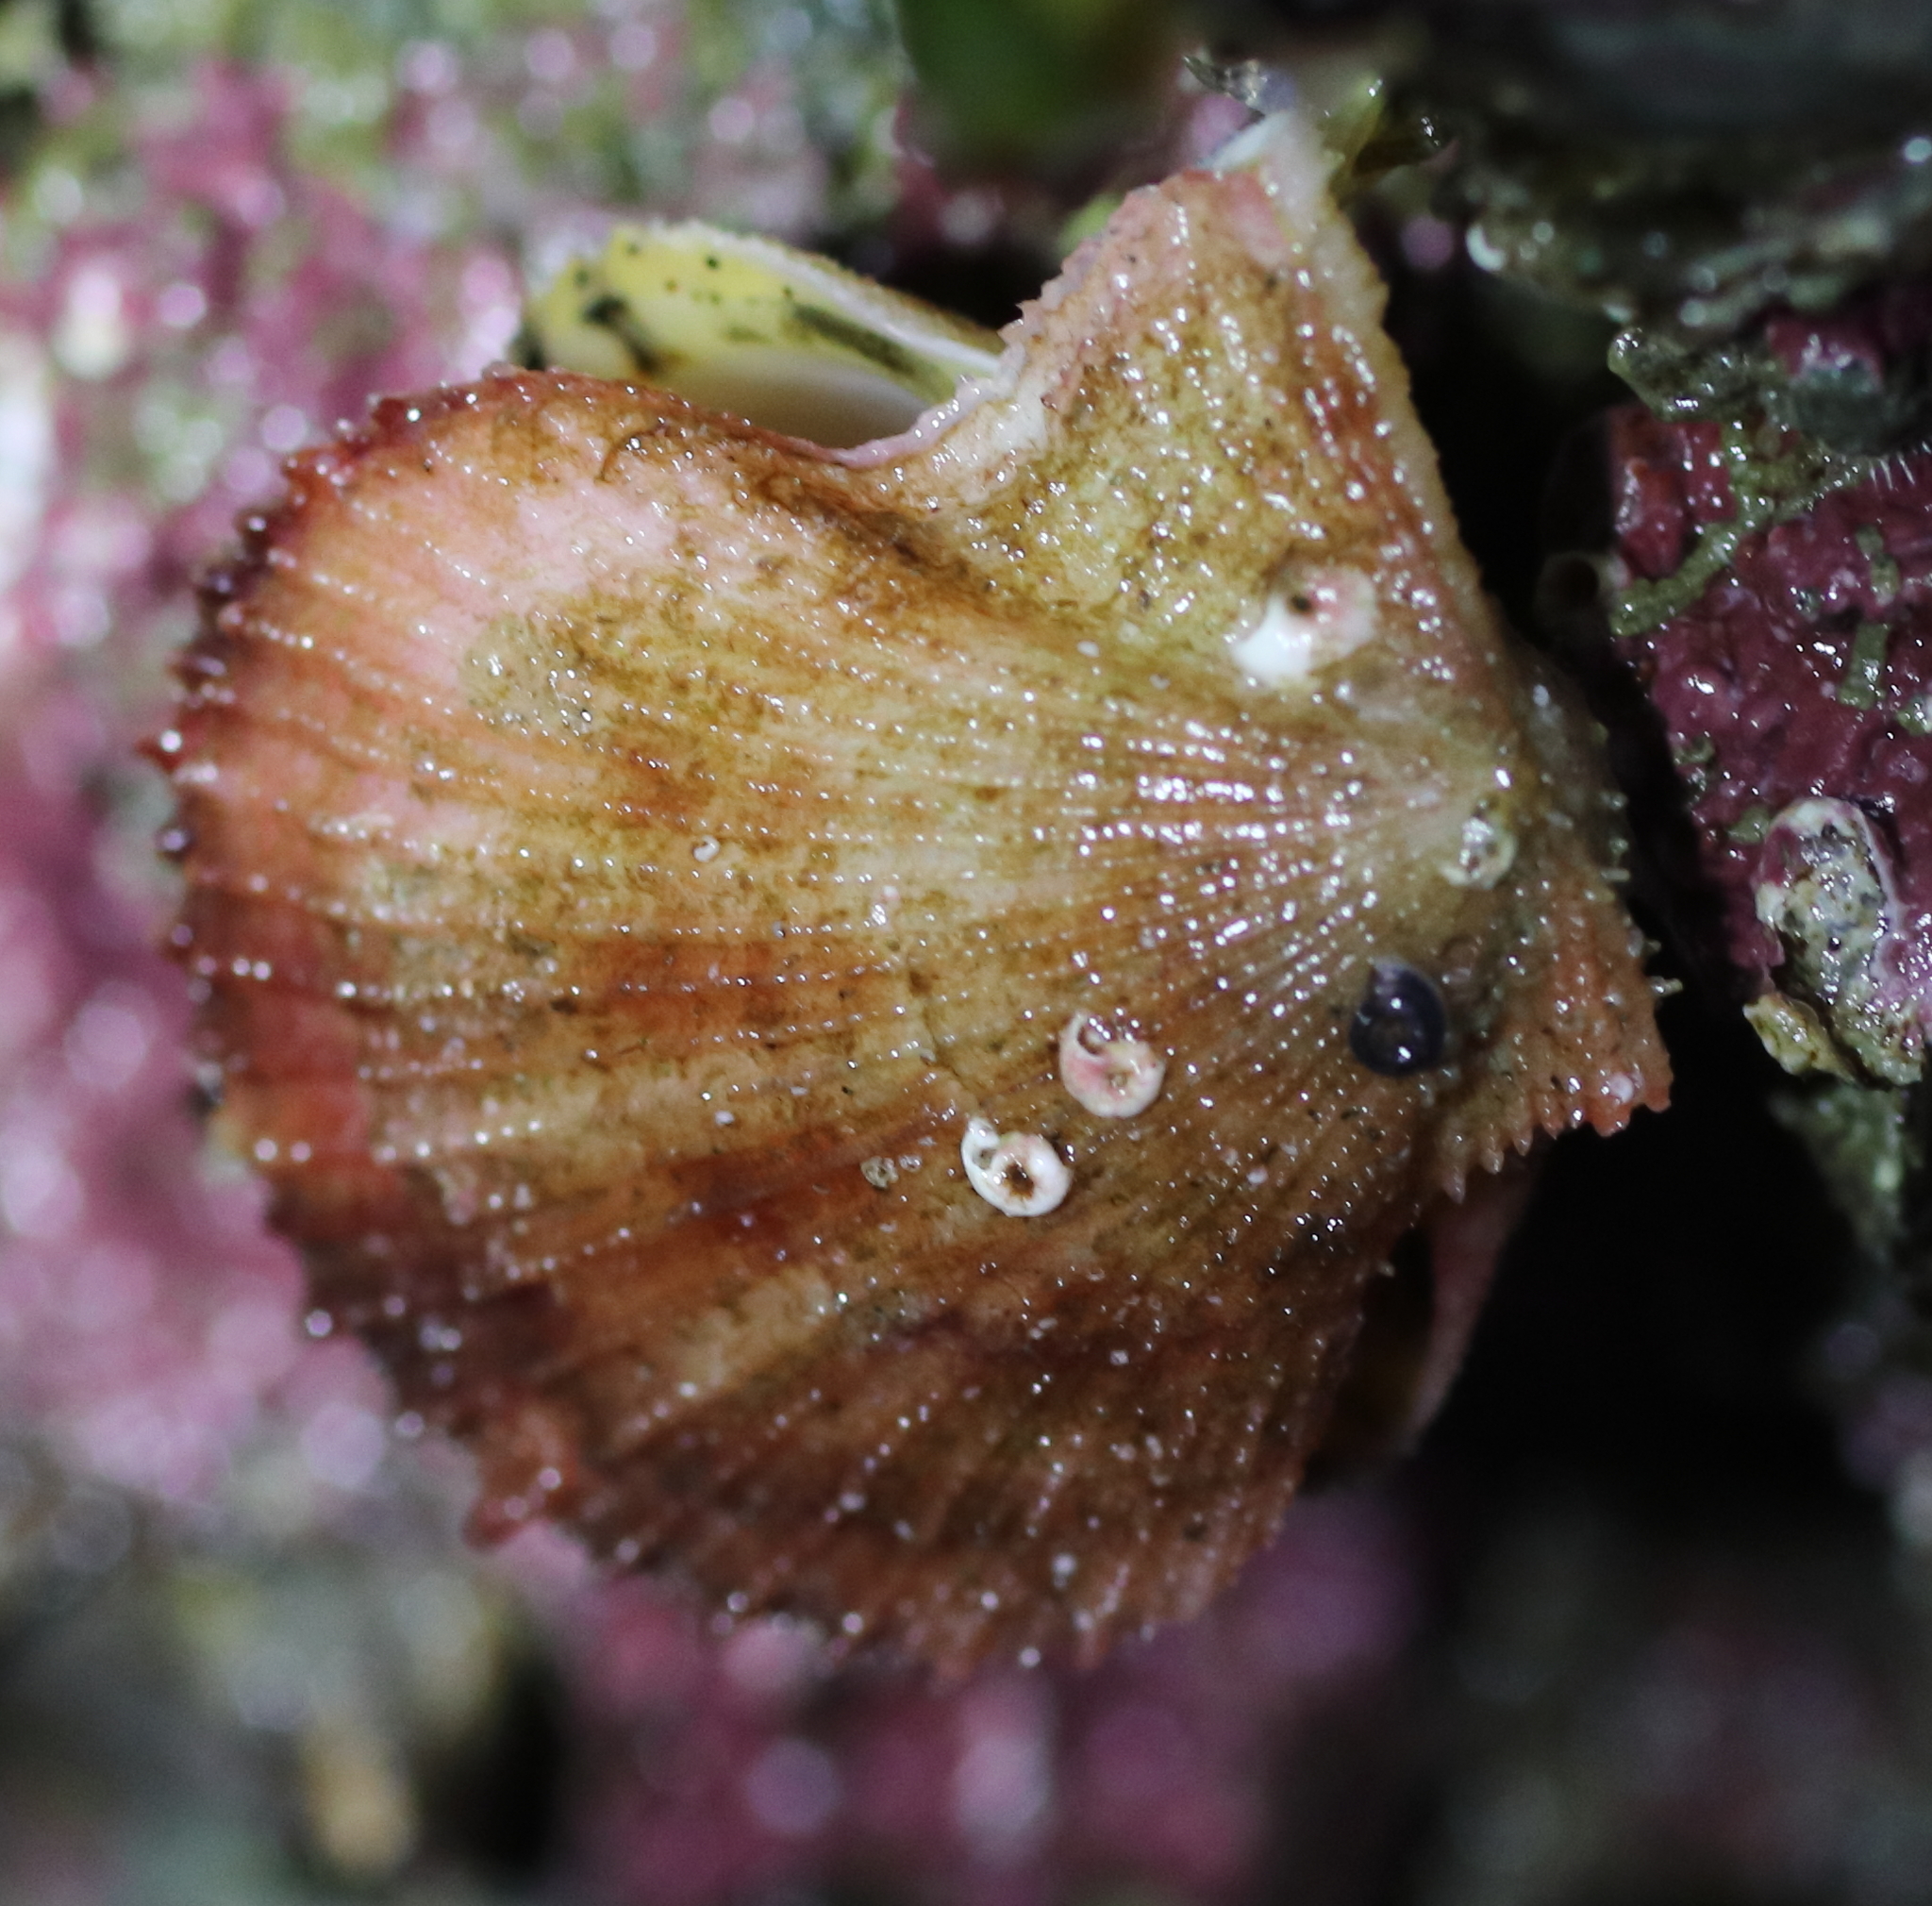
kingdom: Animalia
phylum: Mollusca
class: Bivalvia
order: Pectinida
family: Pectinidae
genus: Chlamys
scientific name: Chlamys hastata
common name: Spear scallop
